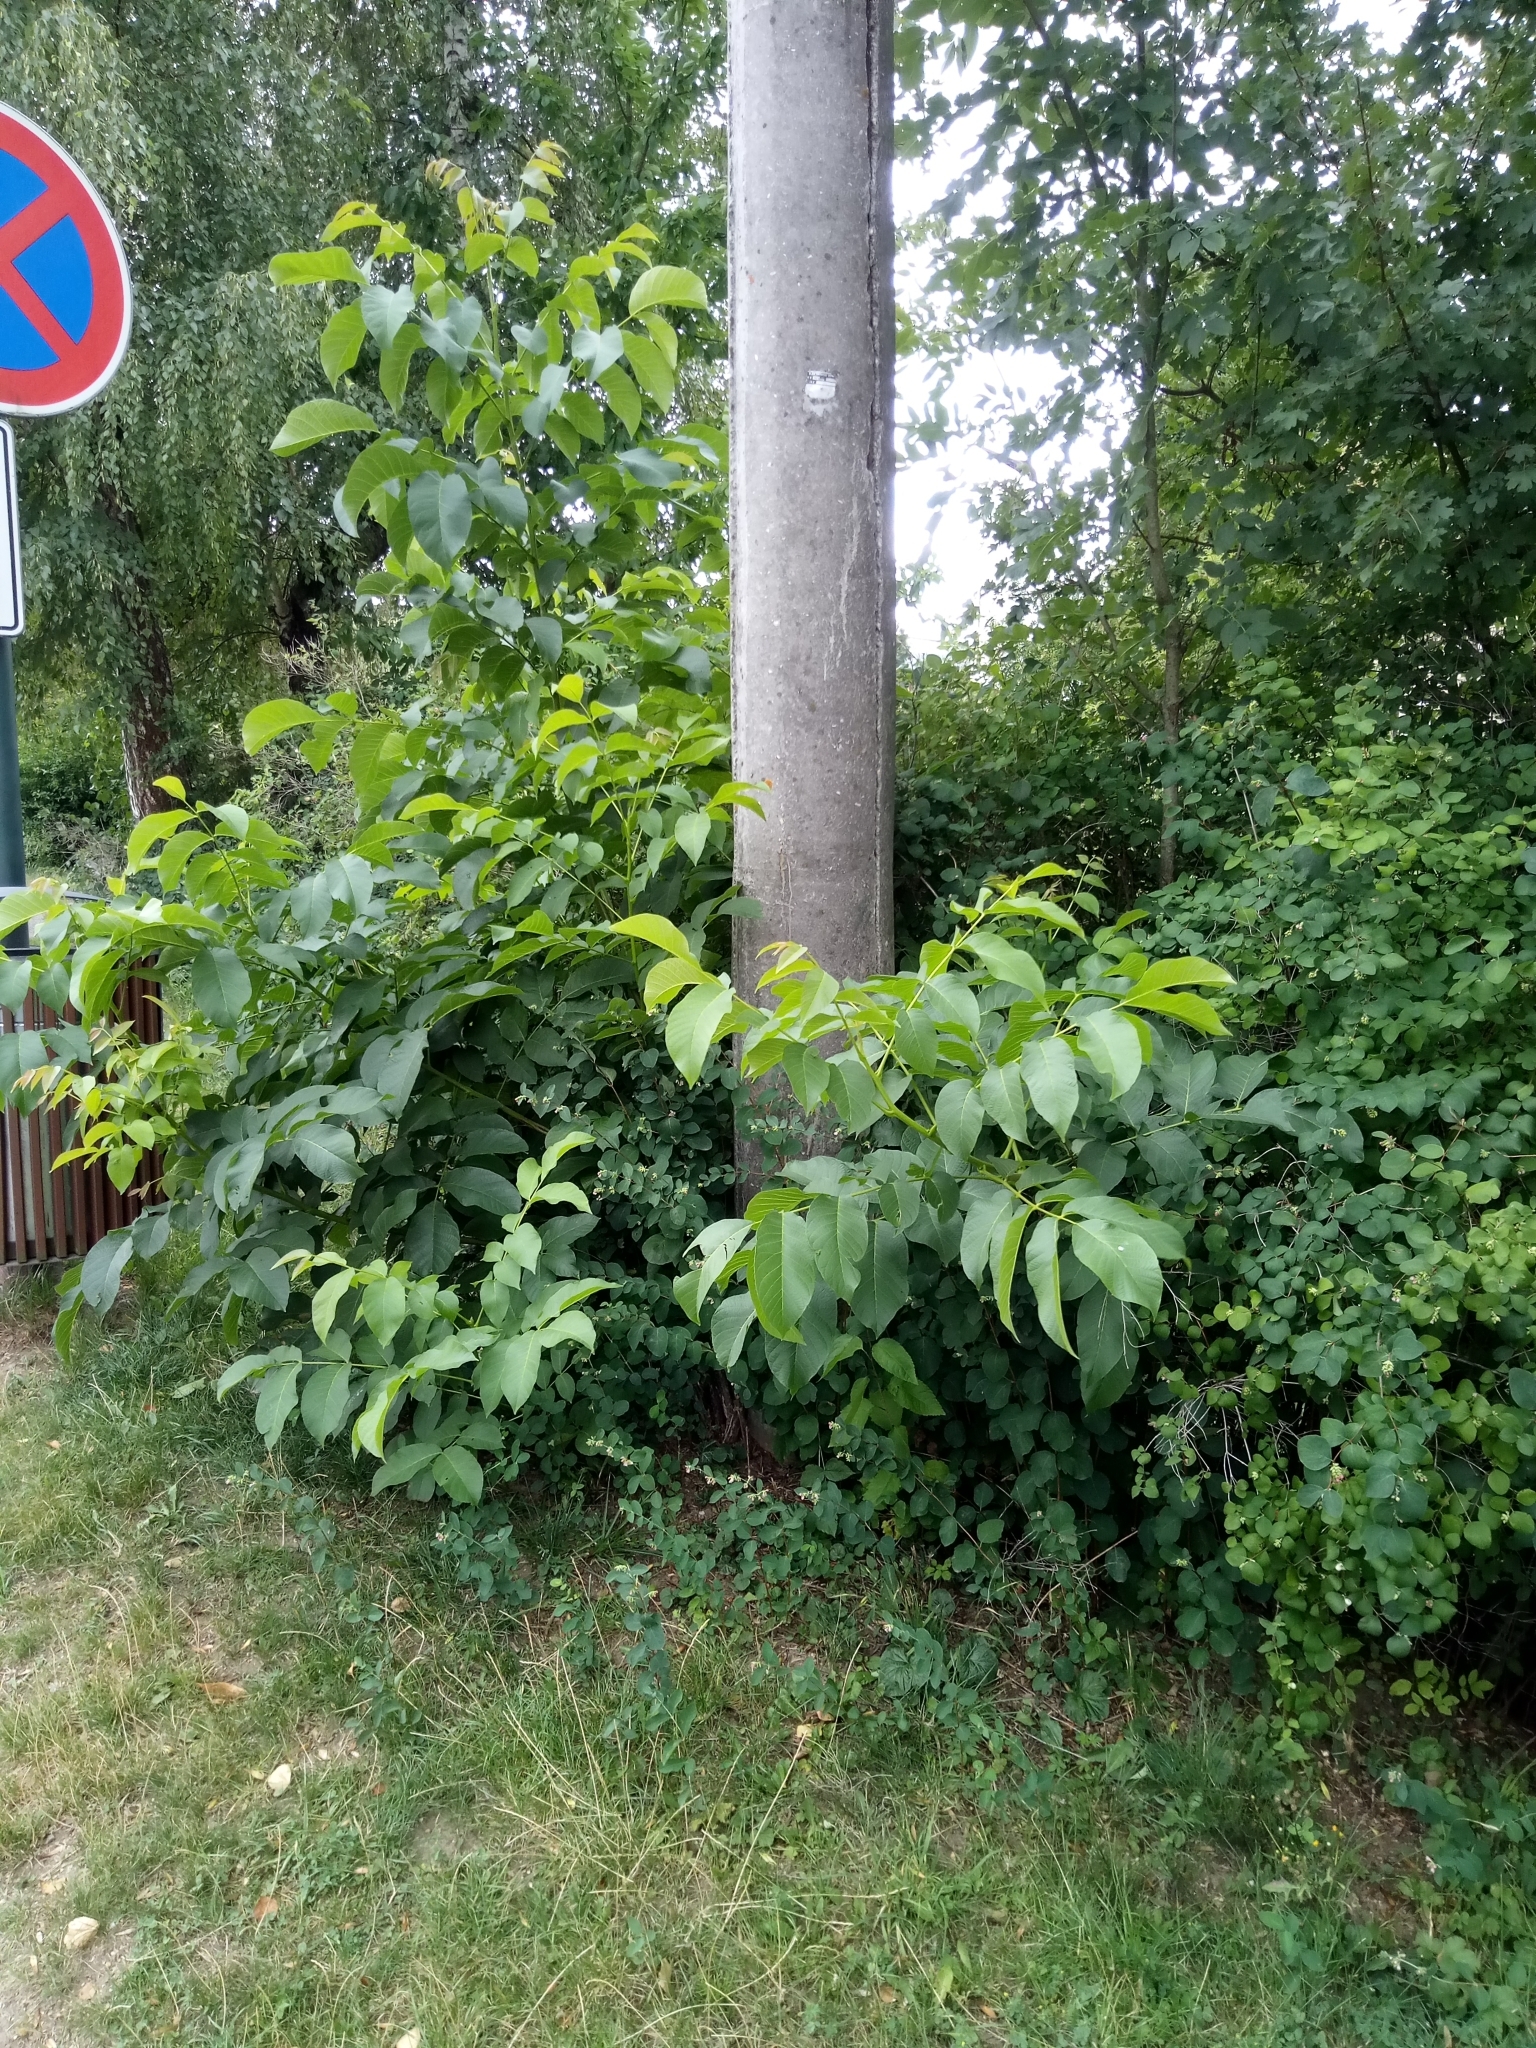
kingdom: Plantae
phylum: Tracheophyta
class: Magnoliopsida
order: Fagales
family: Juglandaceae
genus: Juglans
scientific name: Juglans regia
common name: Walnut
